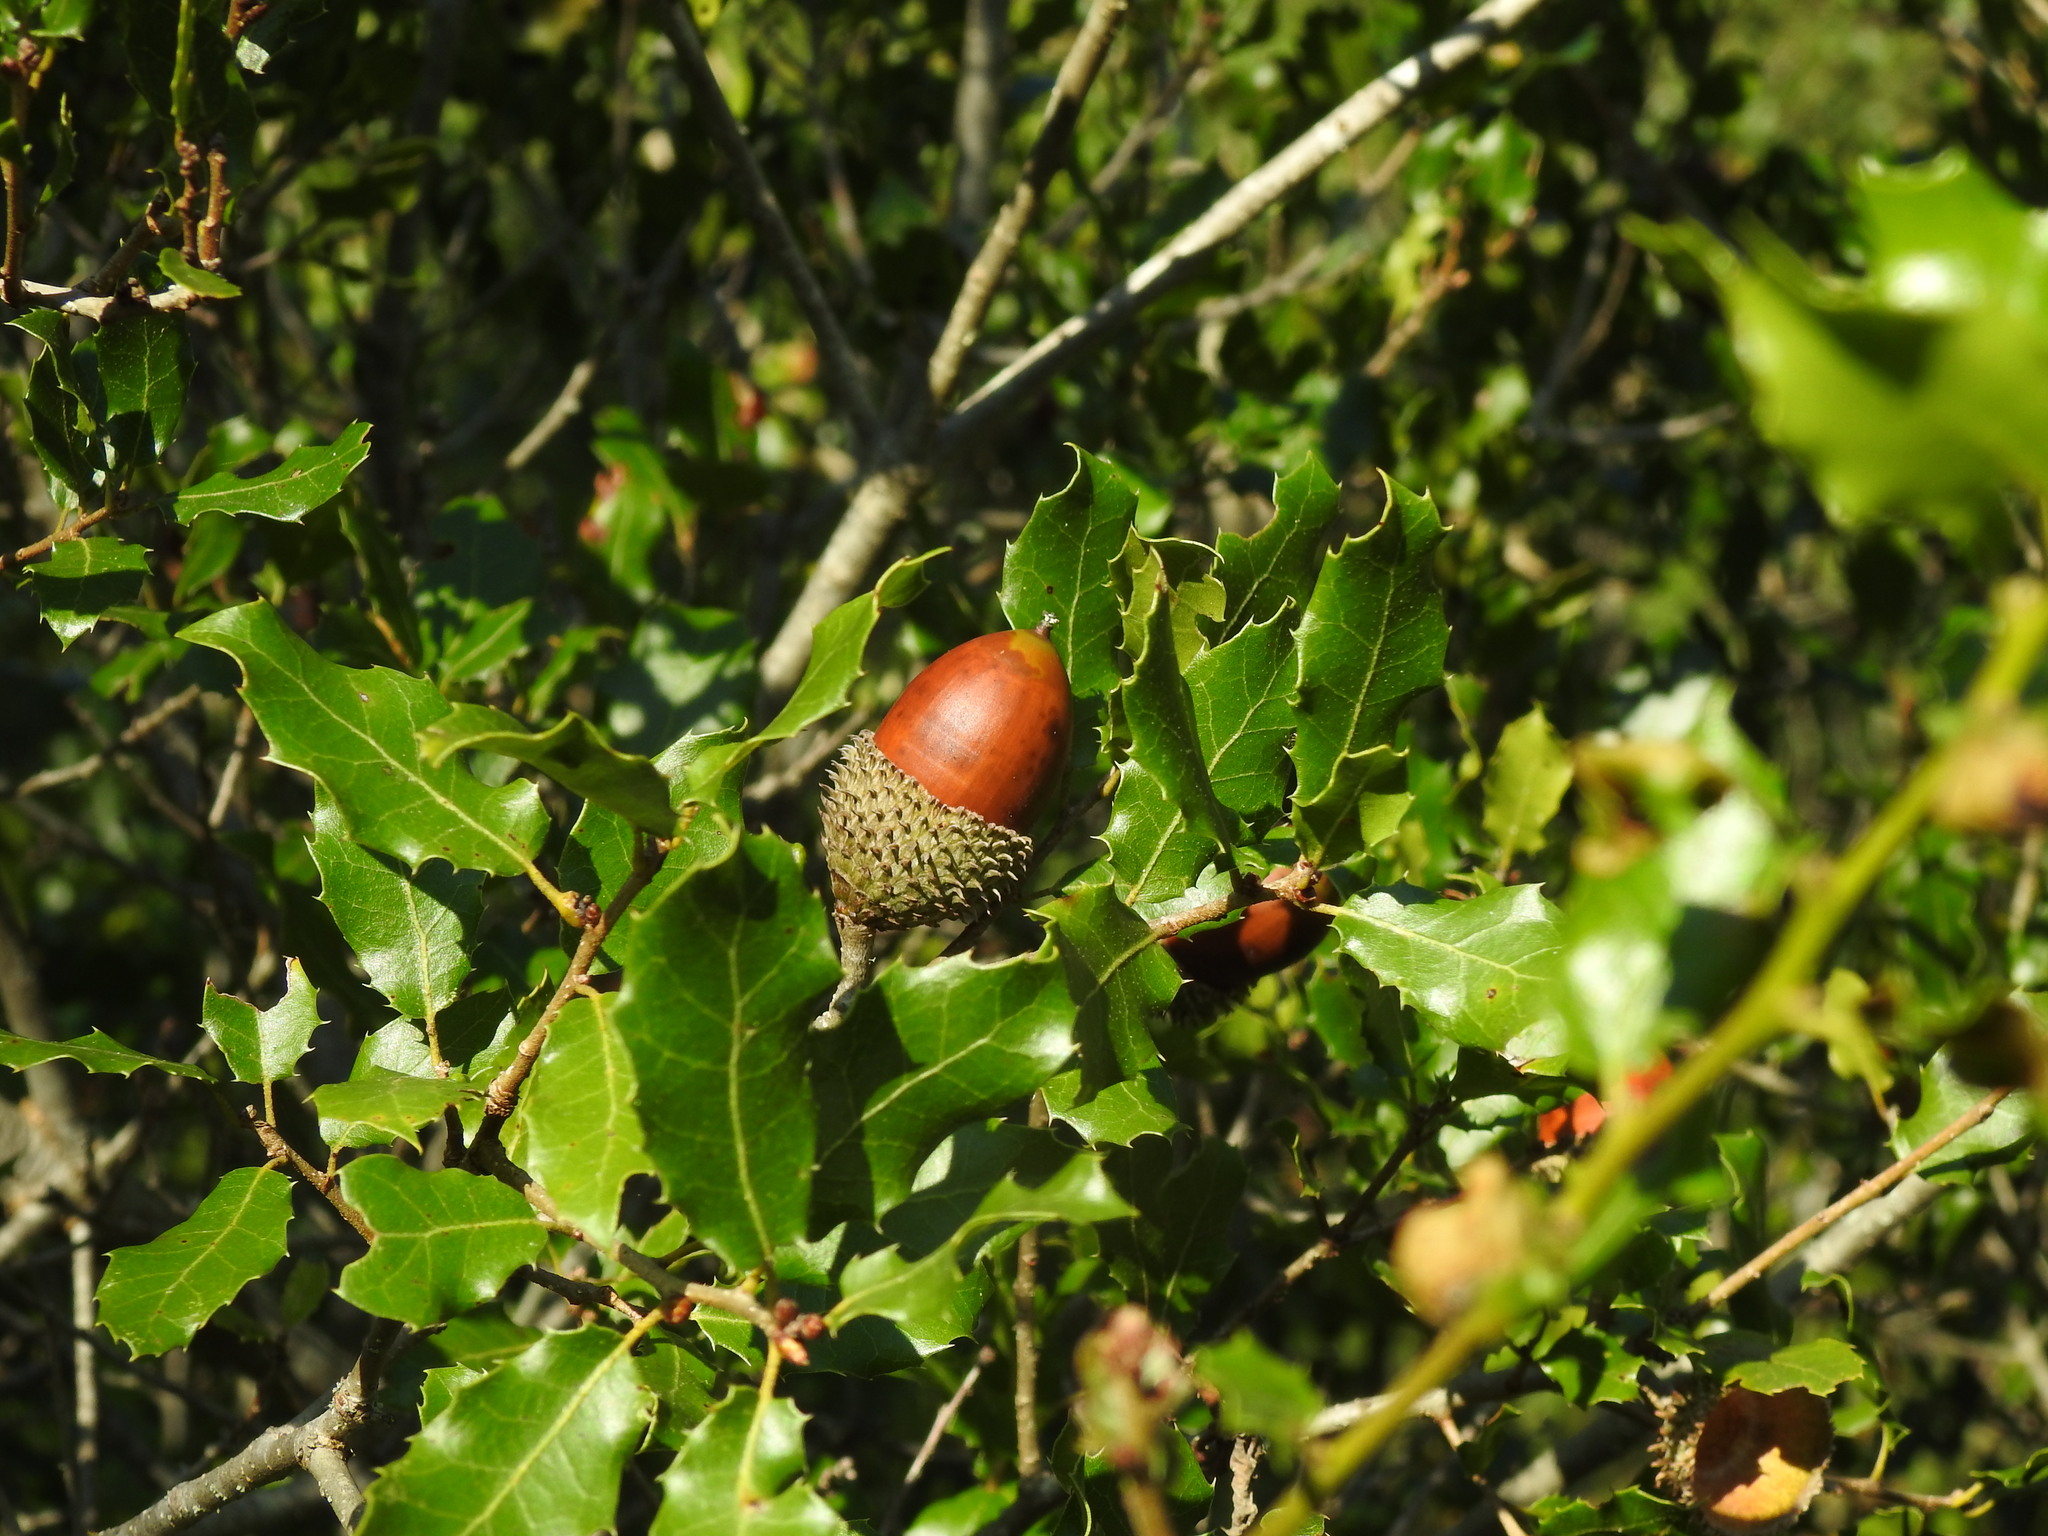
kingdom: Plantae
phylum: Tracheophyta
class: Magnoliopsida
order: Fagales
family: Fagaceae
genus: Quercus
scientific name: Quercus coccifera
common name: Kermes oak
